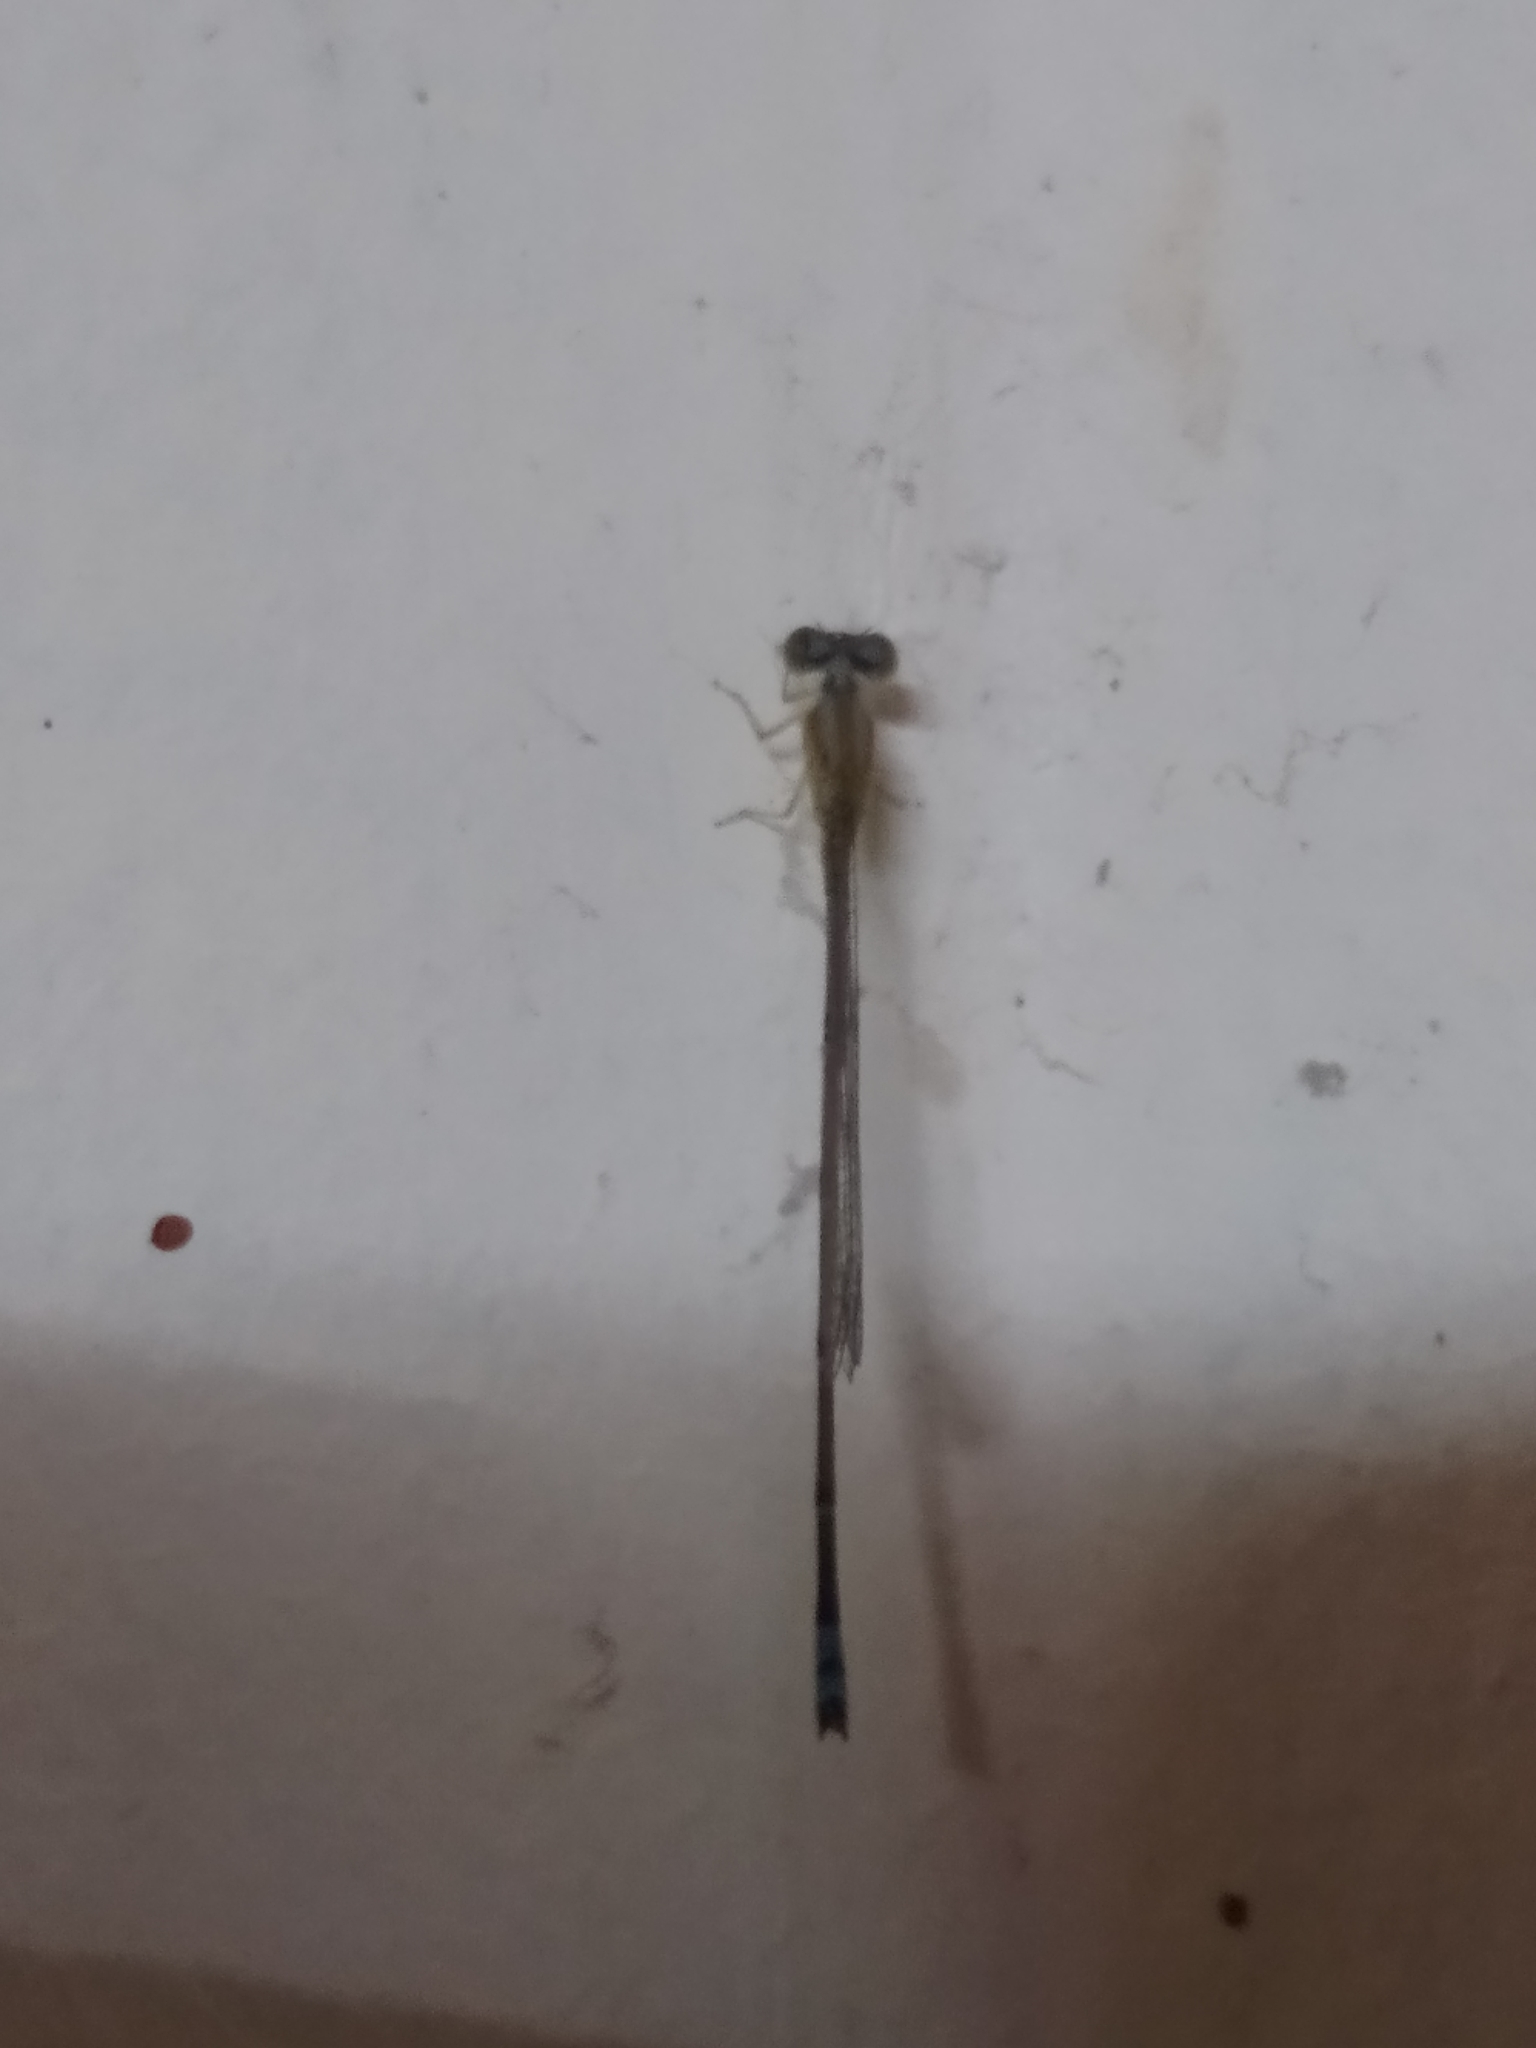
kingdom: Animalia
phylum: Arthropoda
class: Insecta
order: Odonata
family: Coenagrionidae
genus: Pseudagrion
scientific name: Pseudagrion microcephalum
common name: Blue riverdamsel
